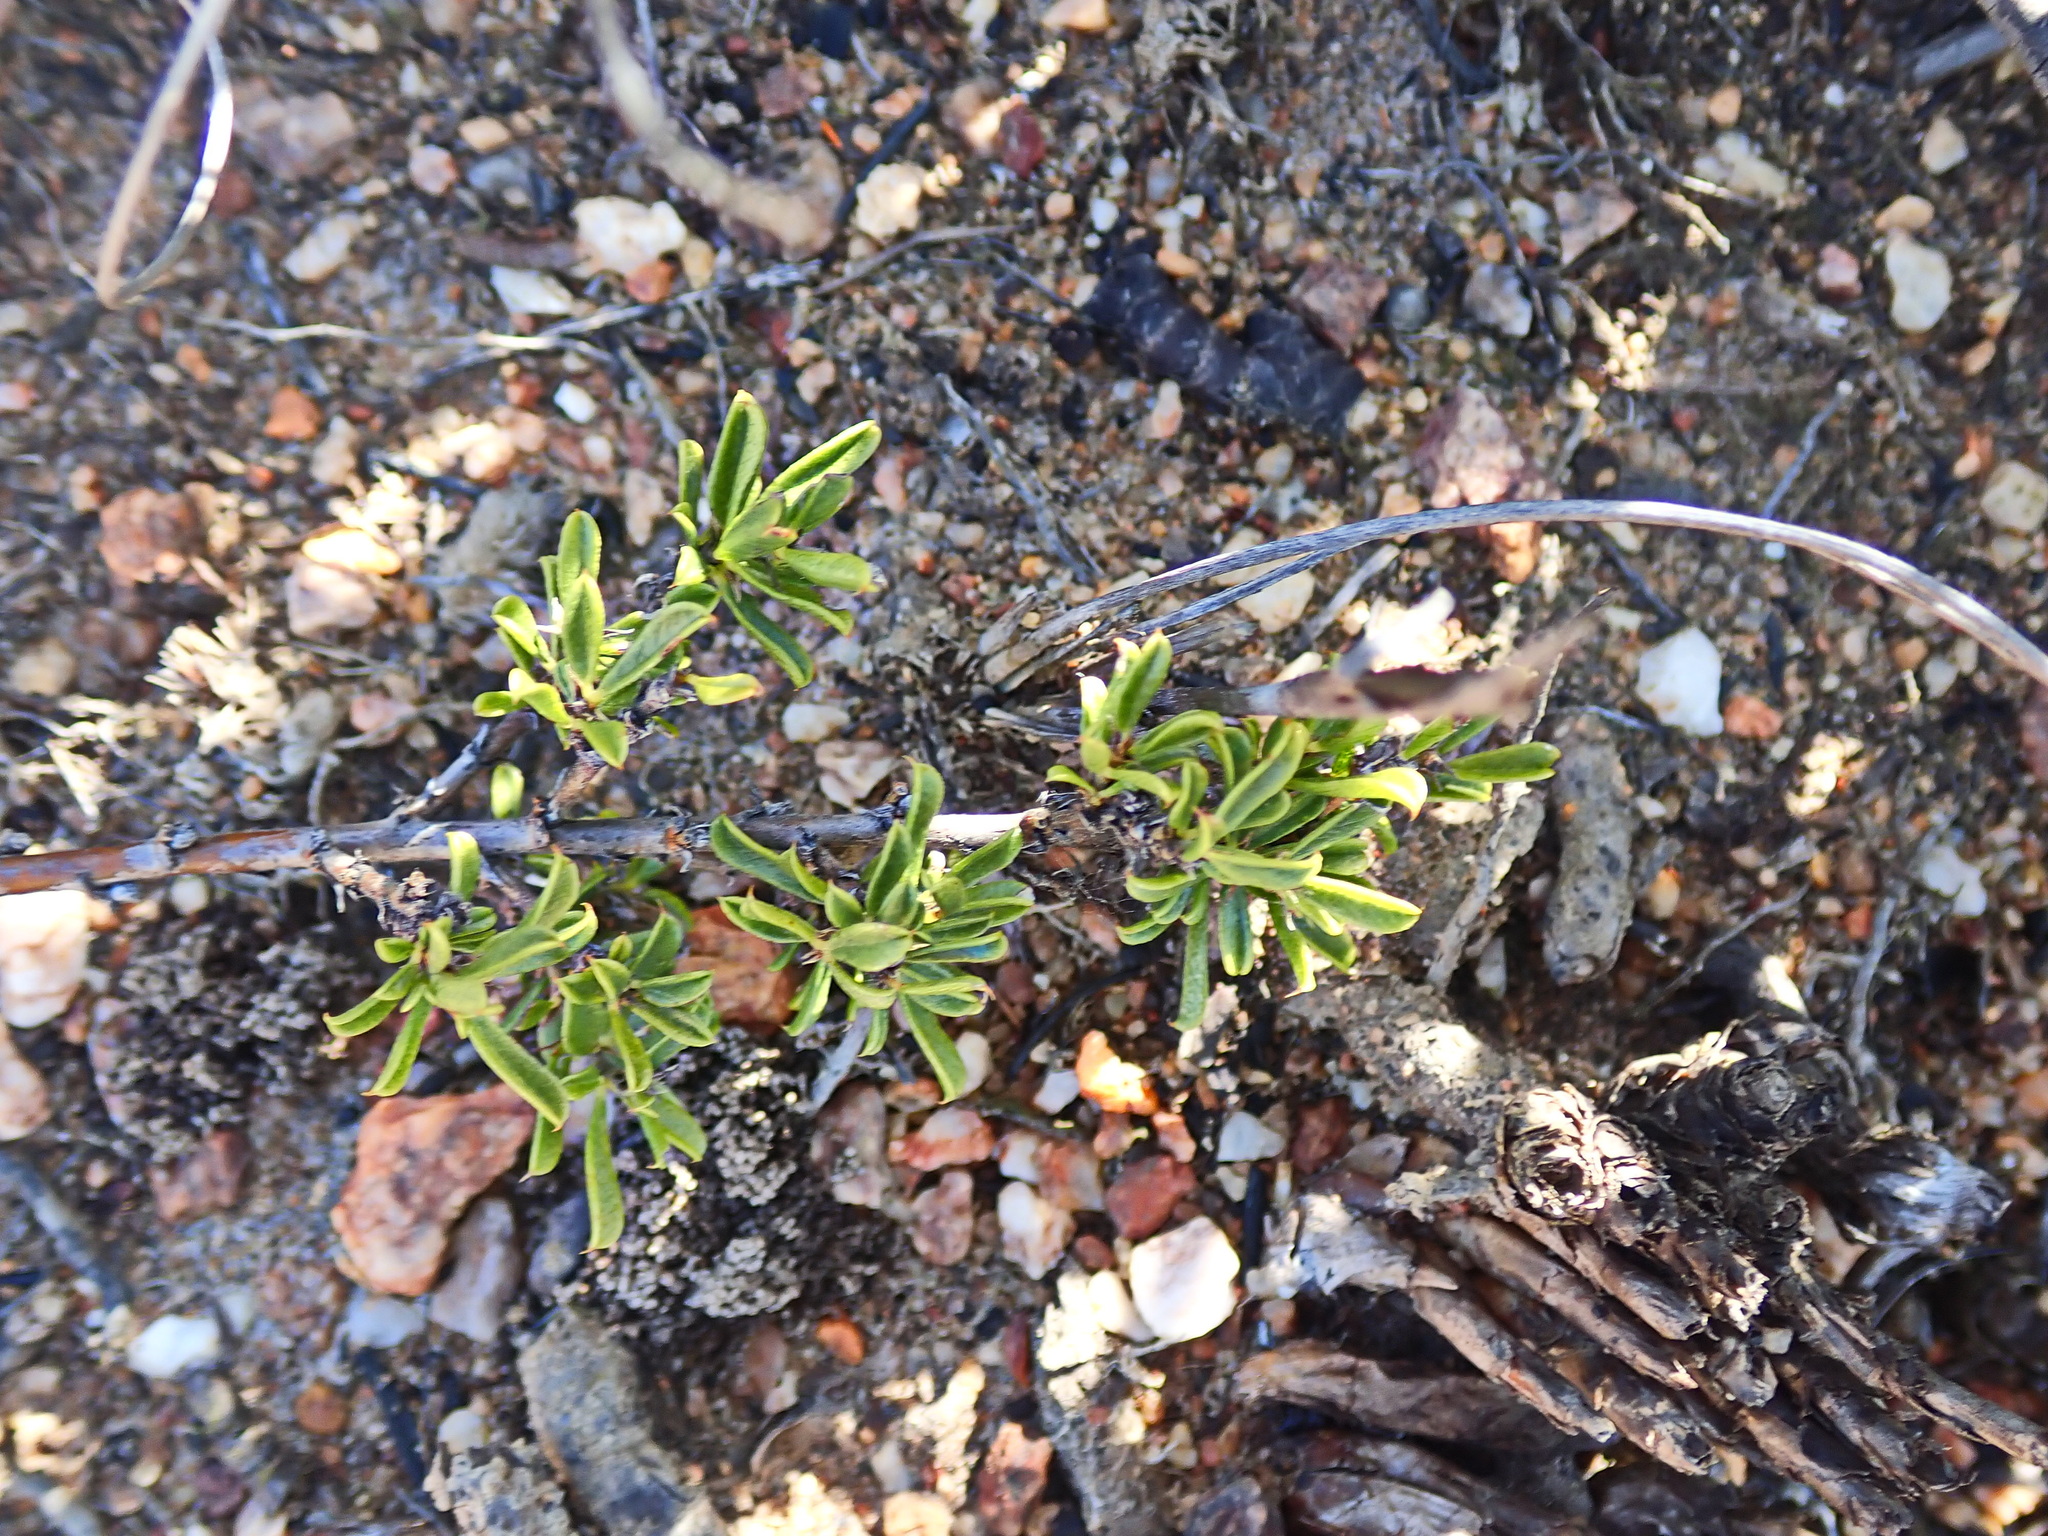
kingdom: Plantae
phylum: Tracheophyta
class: Magnoliopsida
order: Fabales
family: Fabaceae
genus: Psoralea
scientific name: Psoralea heterosepala
